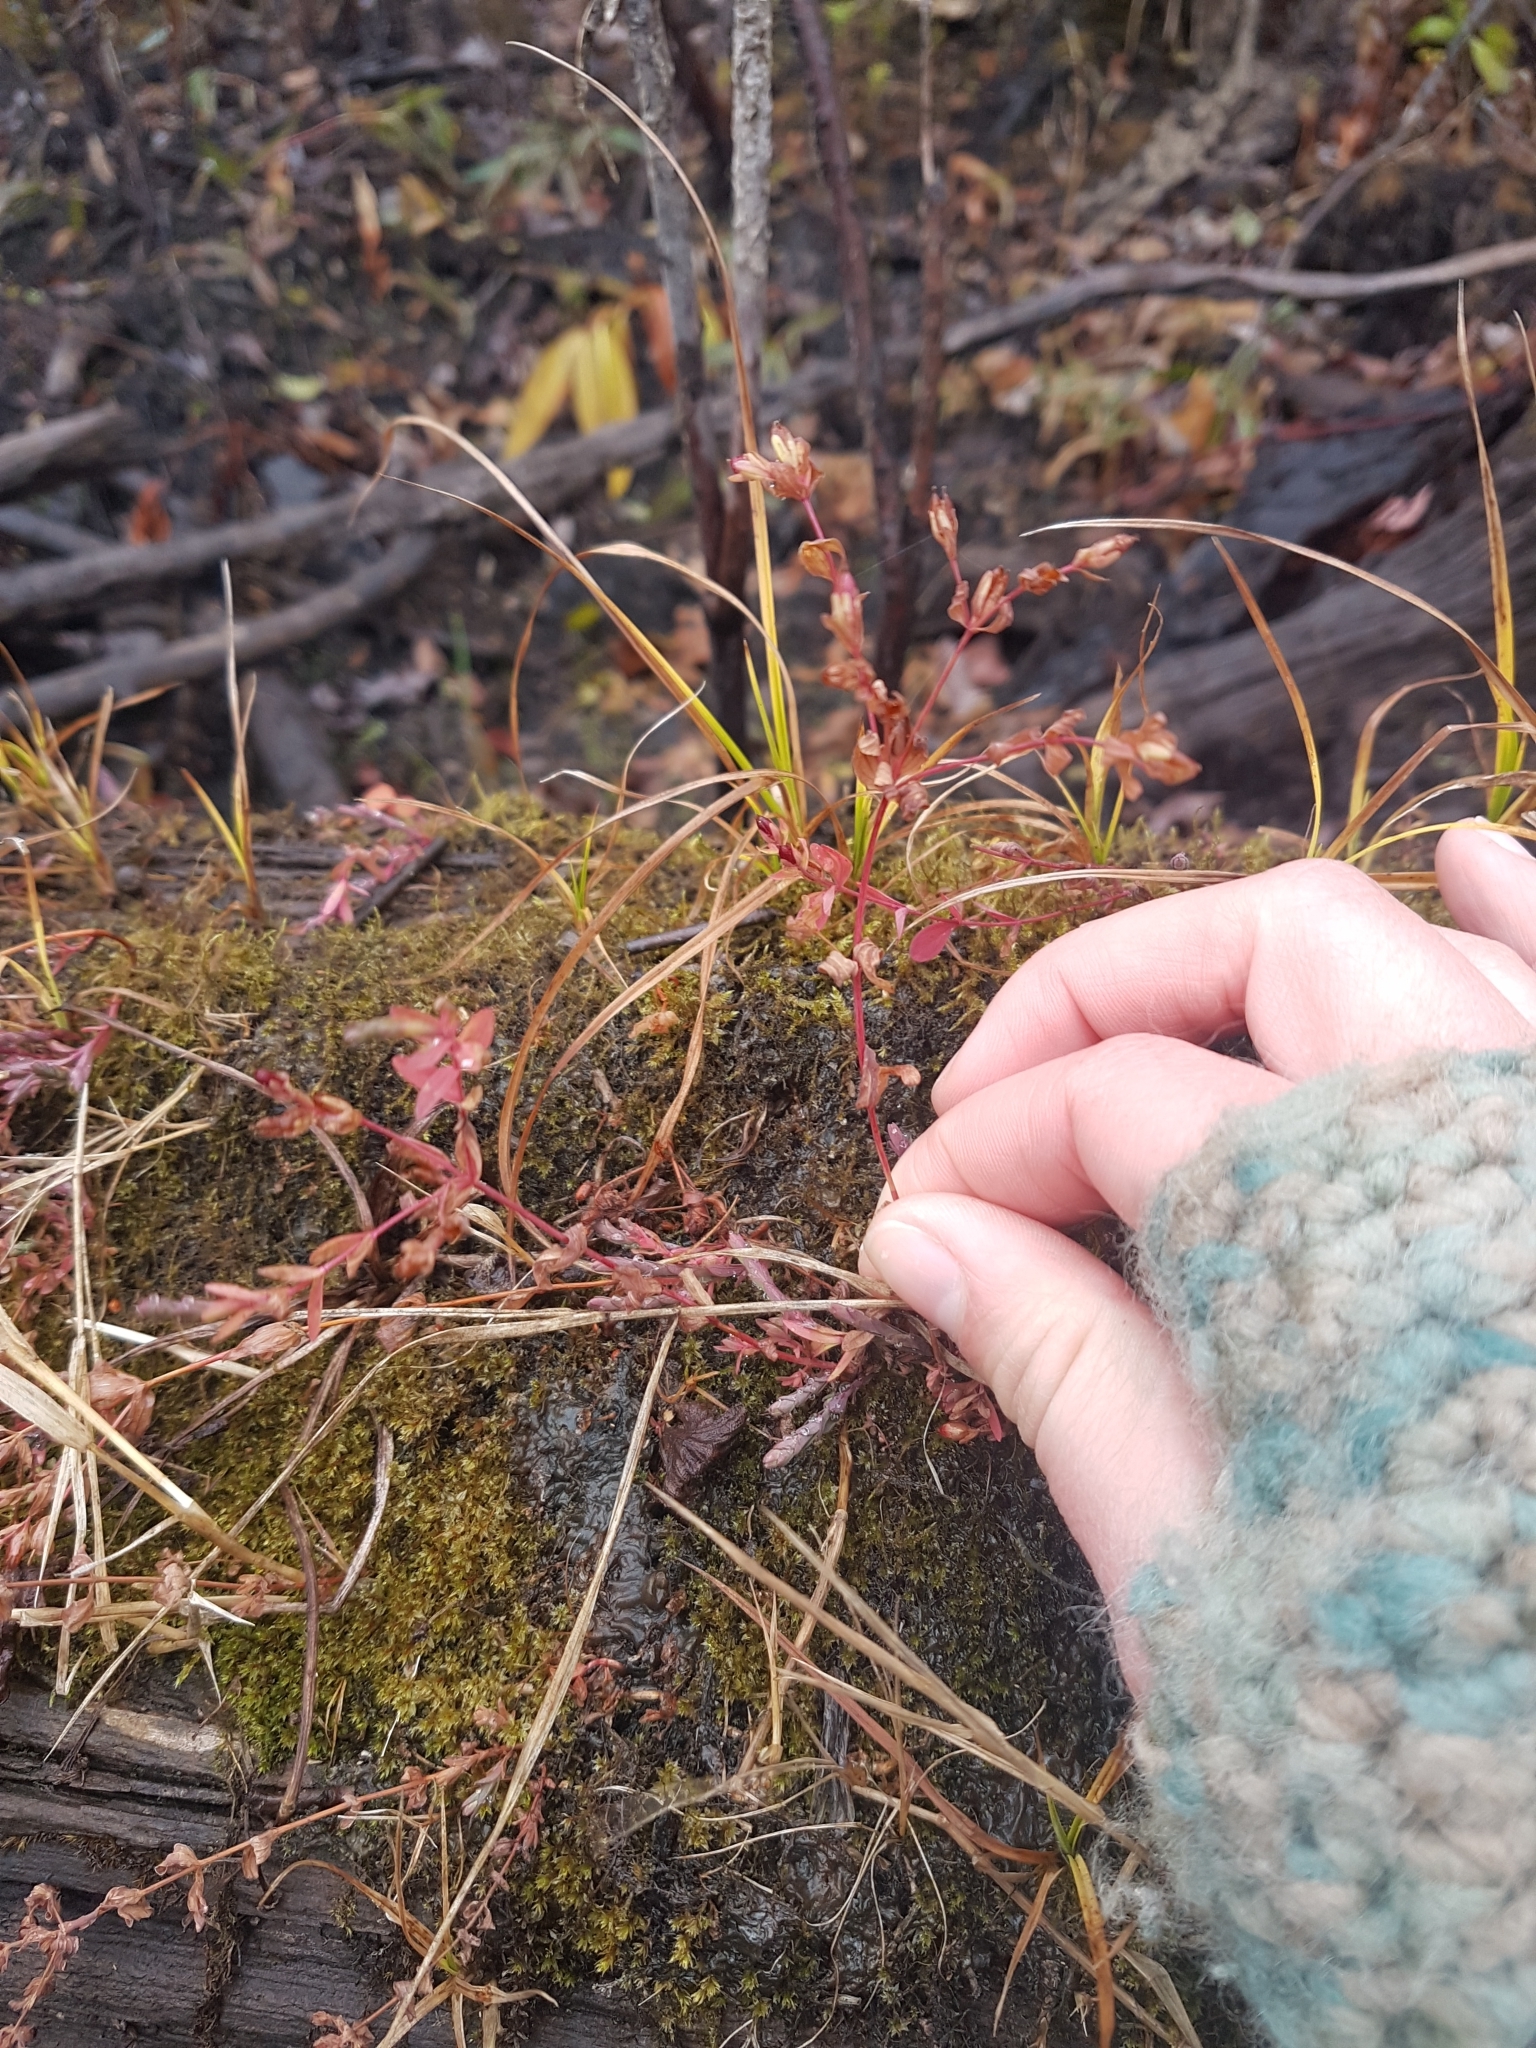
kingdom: Plantae
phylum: Tracheophyta
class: Magnoliopsida
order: Malpighiales
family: Hypericaceae
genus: Hypericum
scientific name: Hypericum mutilum
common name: Dwarf st. john's-wort
